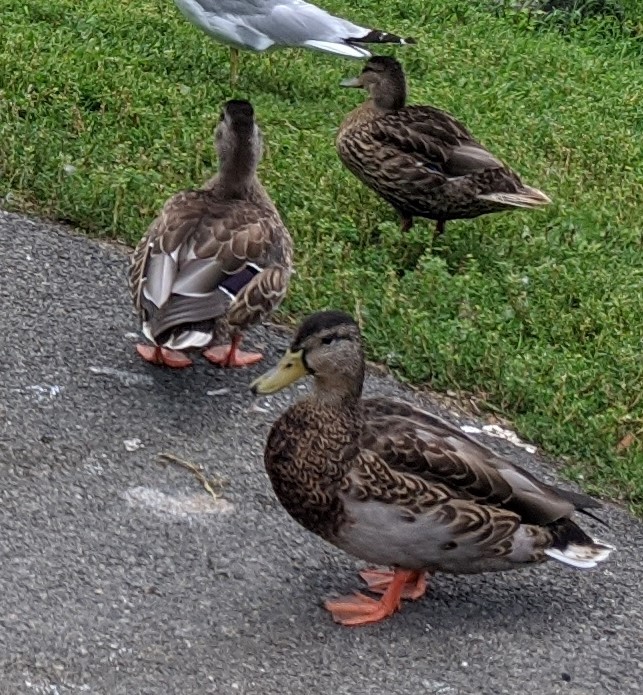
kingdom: Animalia
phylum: Chordata
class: Aves
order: Anseriformes
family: Anatidae
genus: Anas
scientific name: Anas platyrhynchos
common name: Mallard
